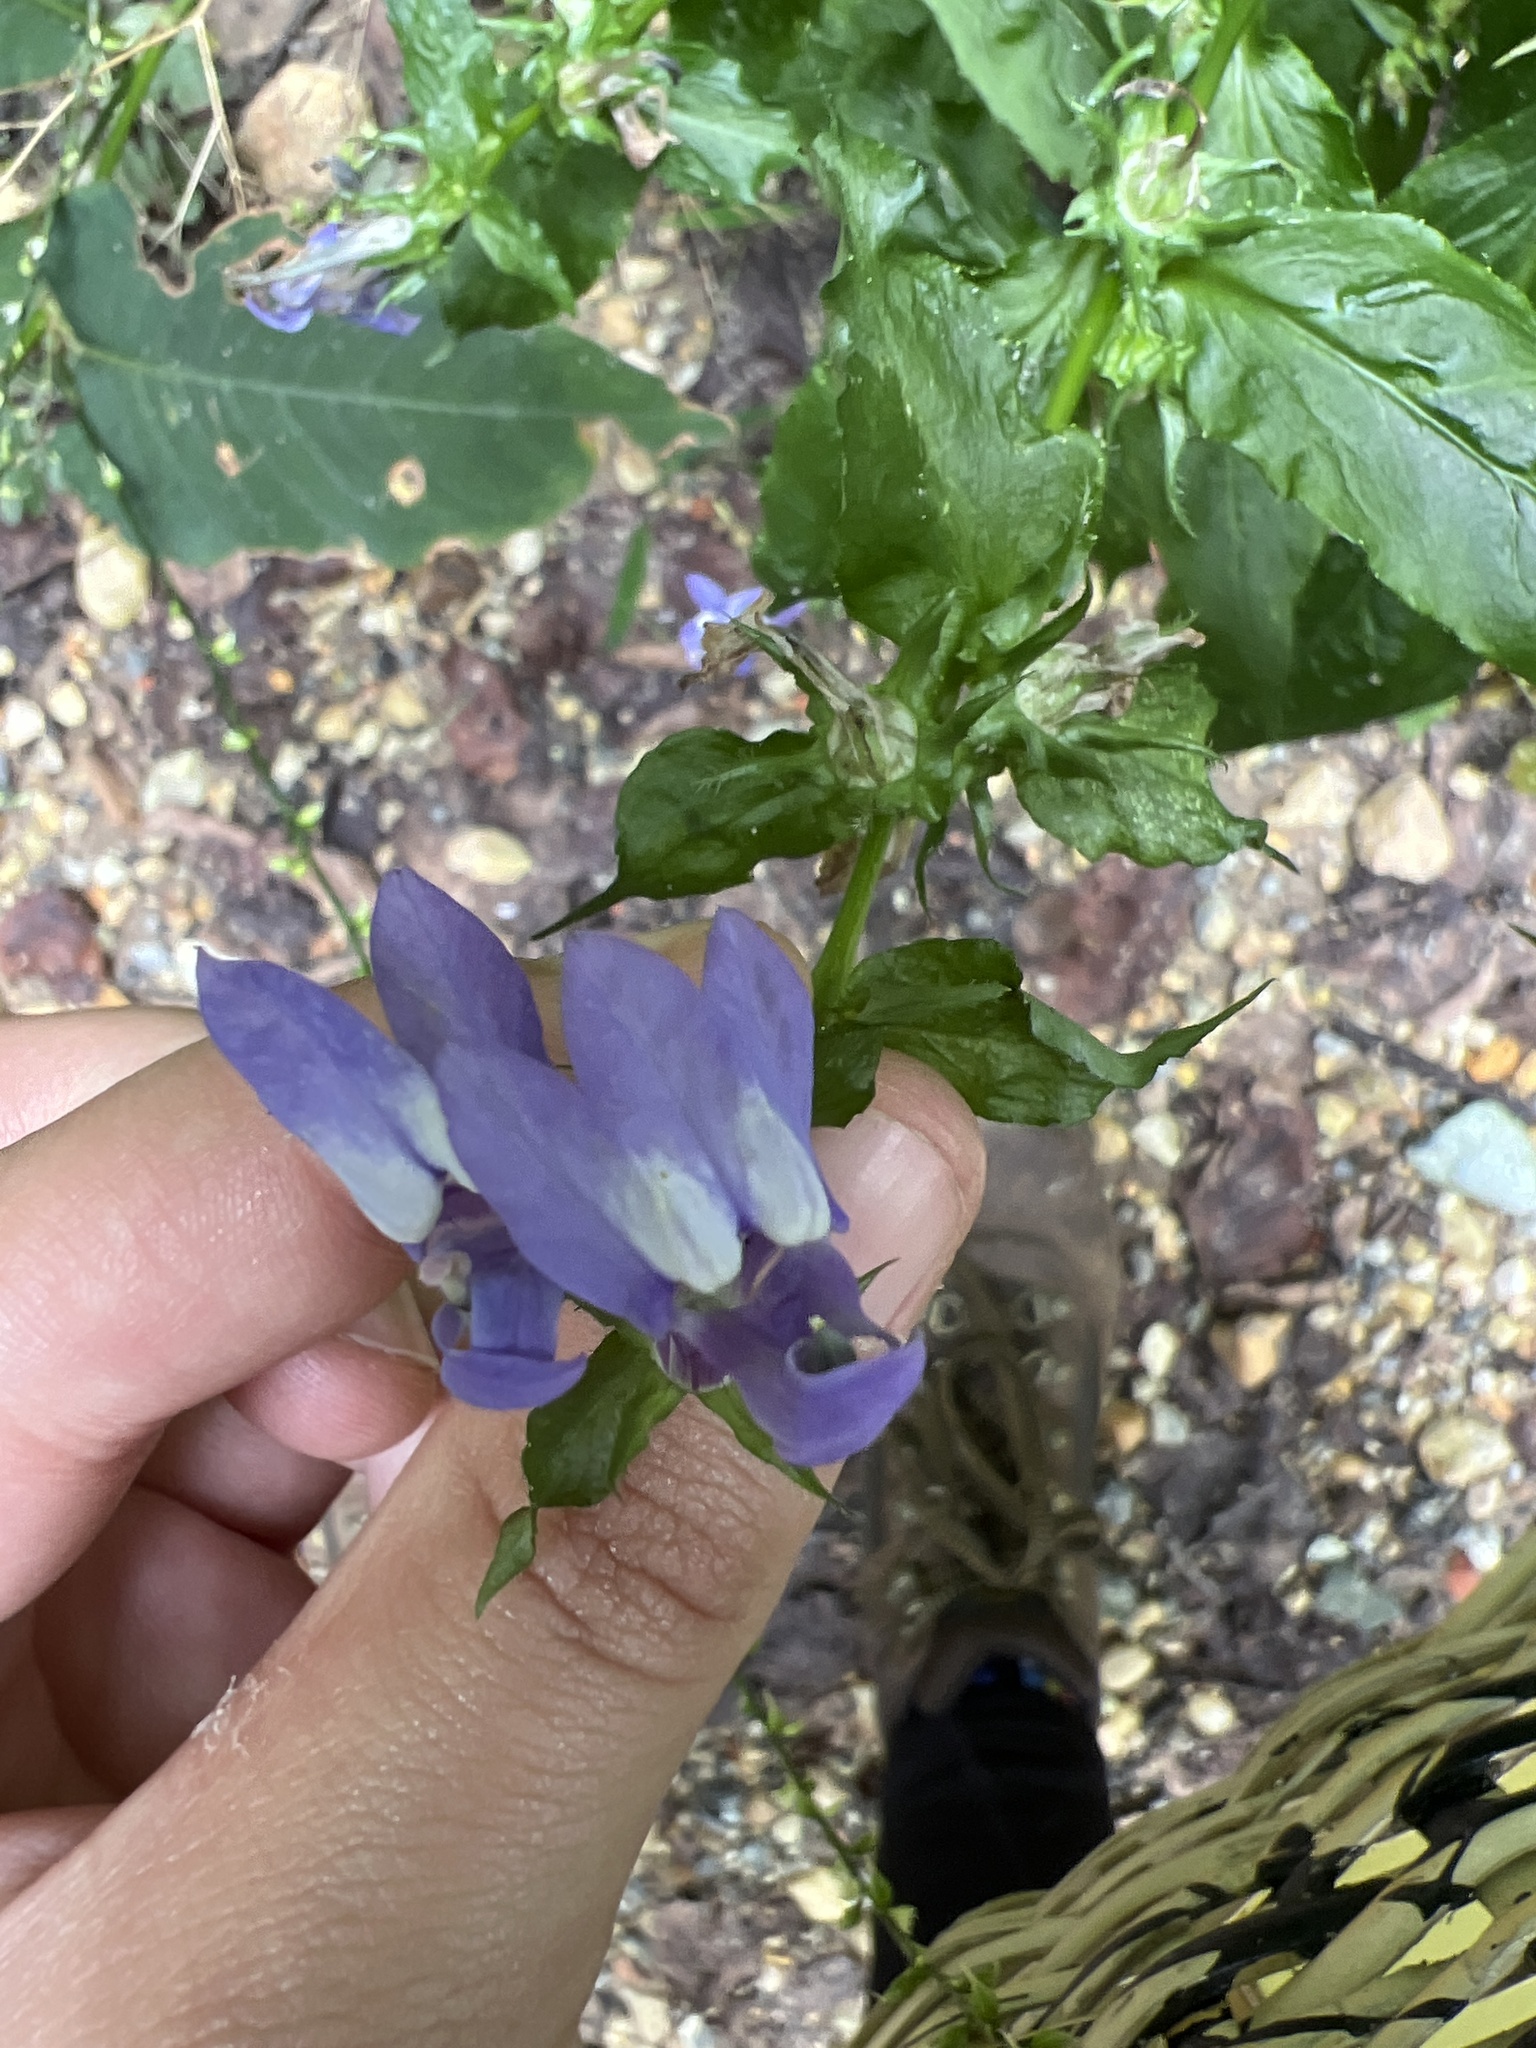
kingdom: Plantae
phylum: Tracheophyta
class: Magnoliopsida
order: Asterales
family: Campanulaceae
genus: Lobelia
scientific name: Lobelia siphilitica
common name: Great lobelia
